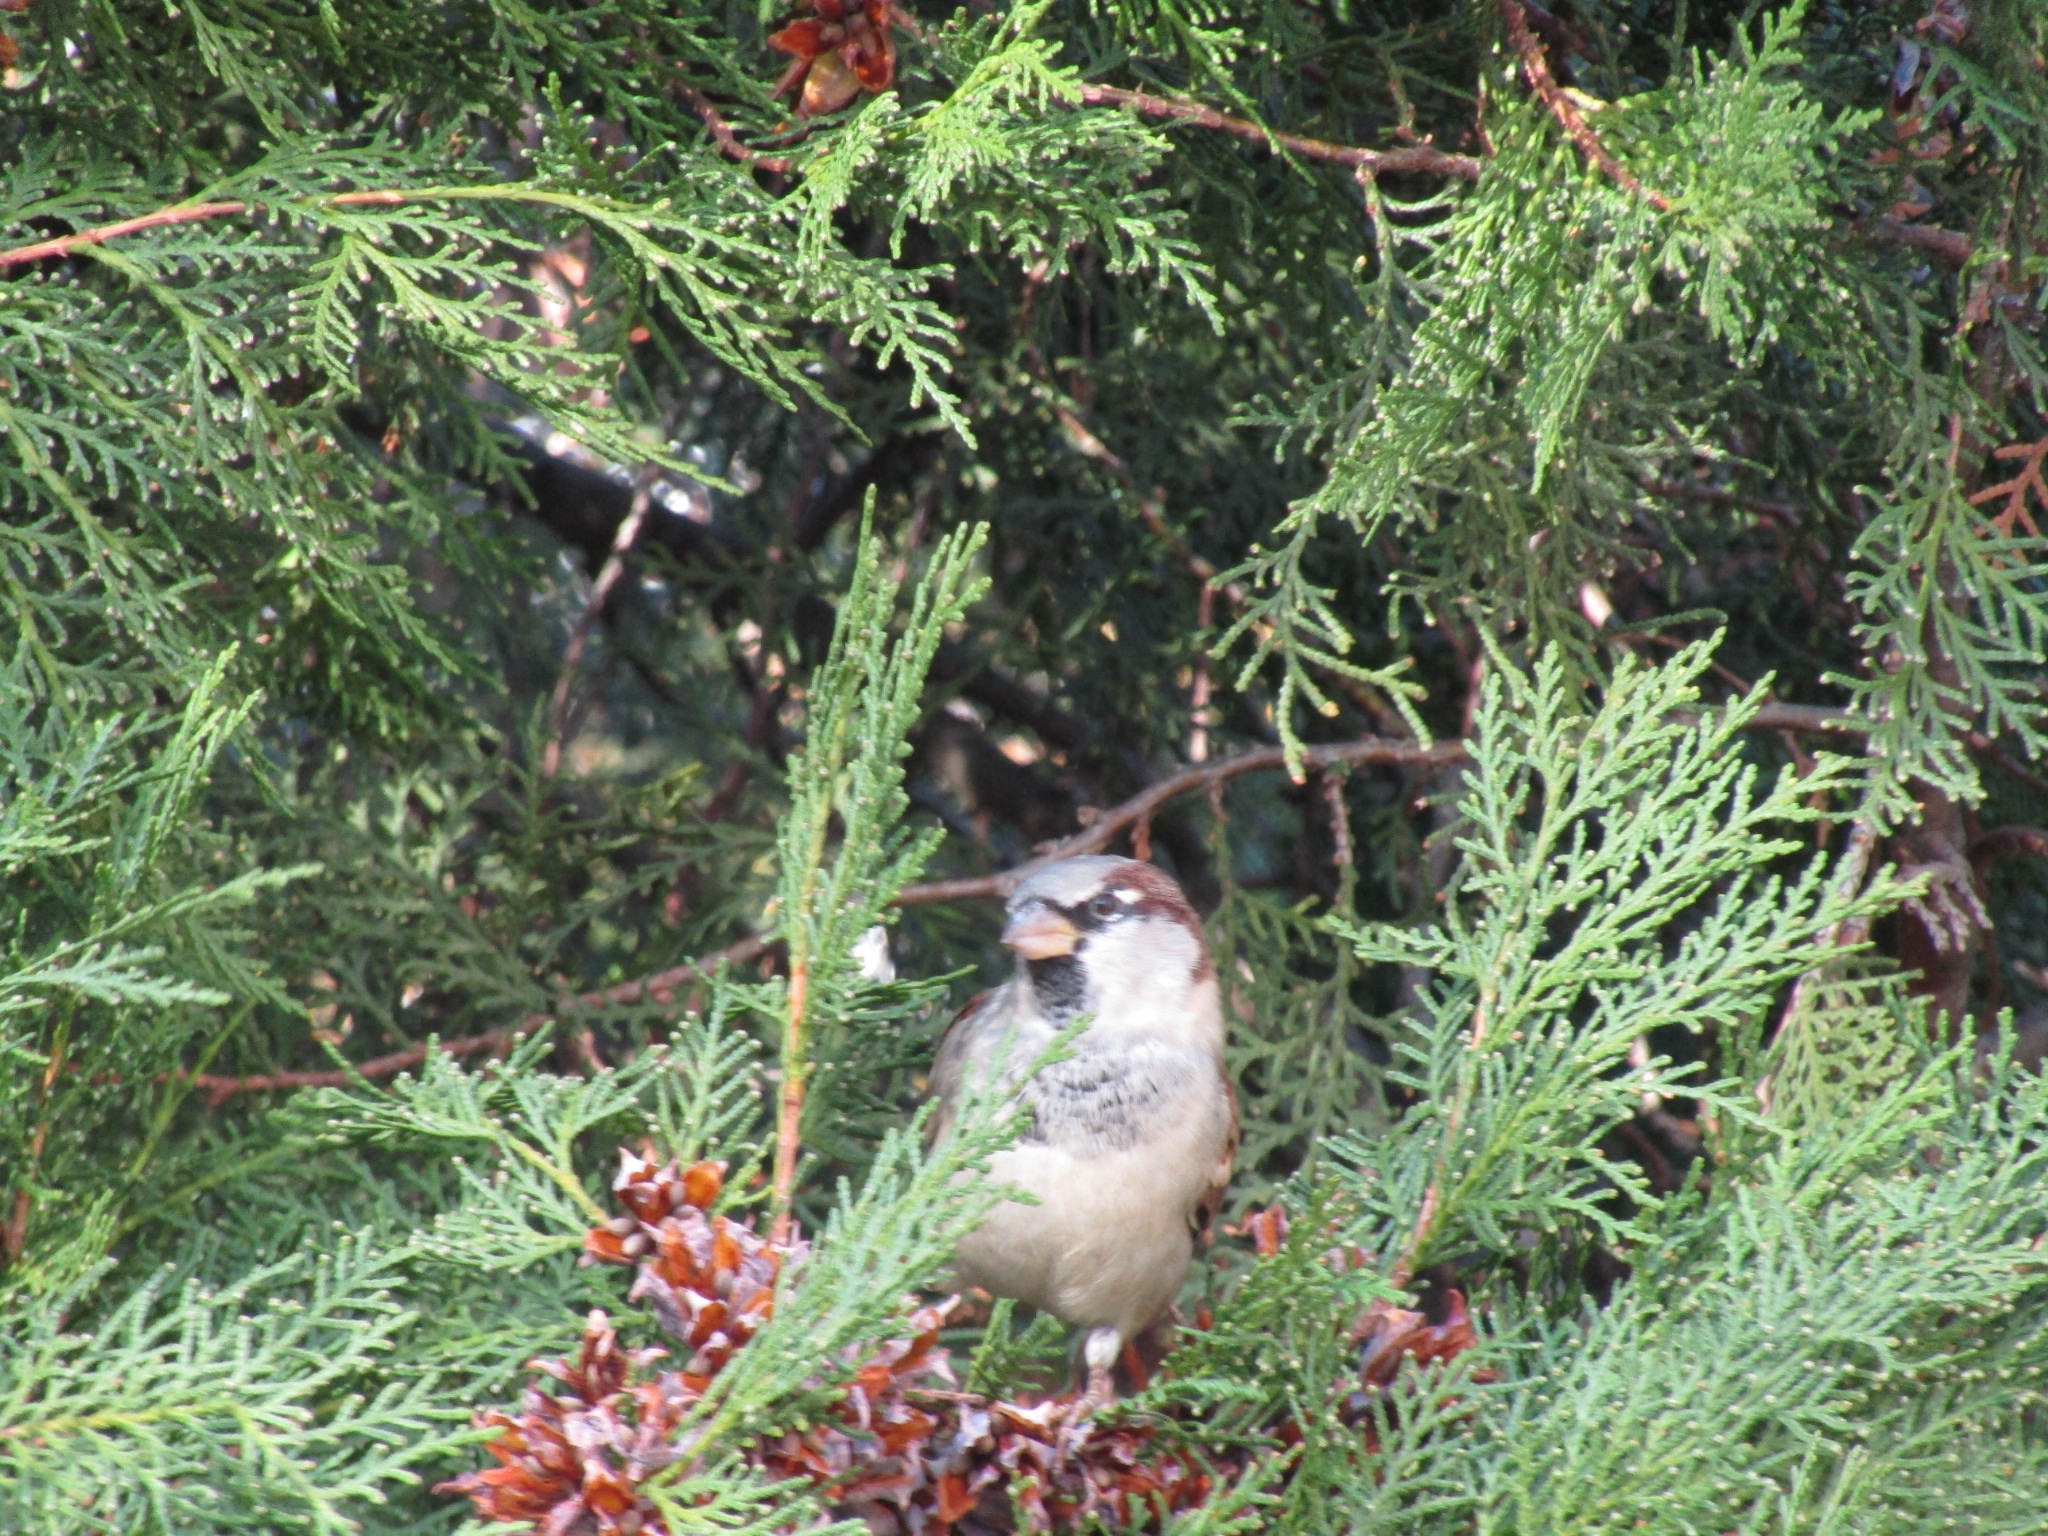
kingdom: Animalia
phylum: Chordata
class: Aves
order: Passeriformes
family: Passeridae
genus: Passer
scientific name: Passer domesticus
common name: House sparrow
